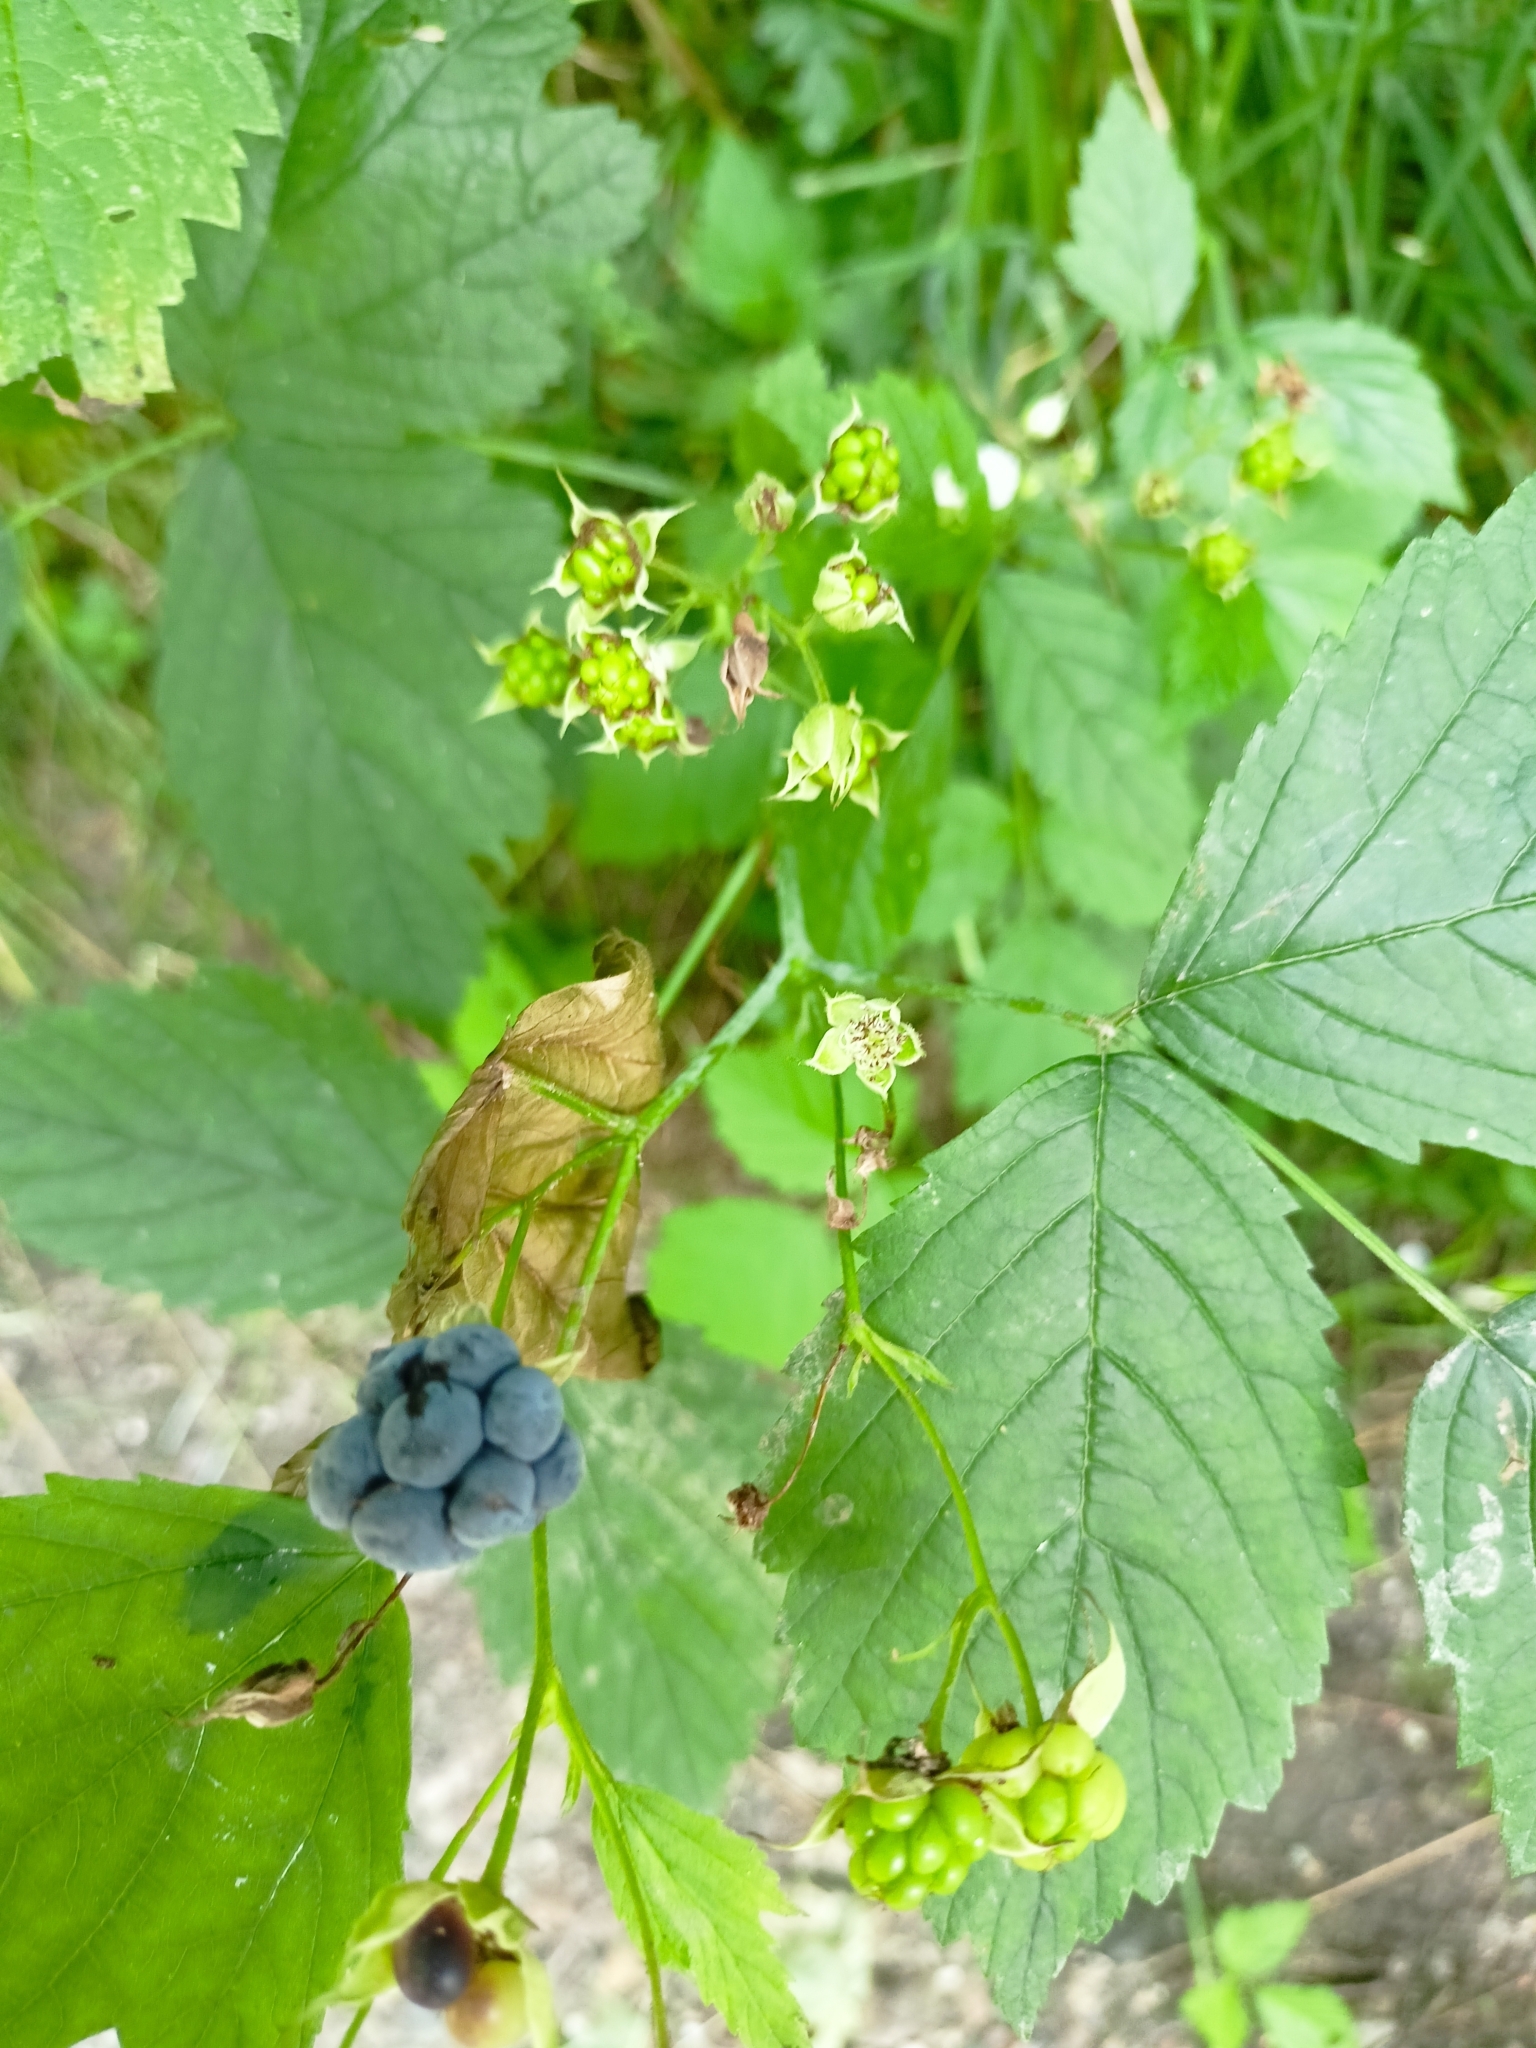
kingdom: Plantae
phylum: Tracheophyta
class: Magnoliopsida
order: Rosales
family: Rosaceae
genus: Rubus
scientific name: Rubus caesius
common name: Dewberry
